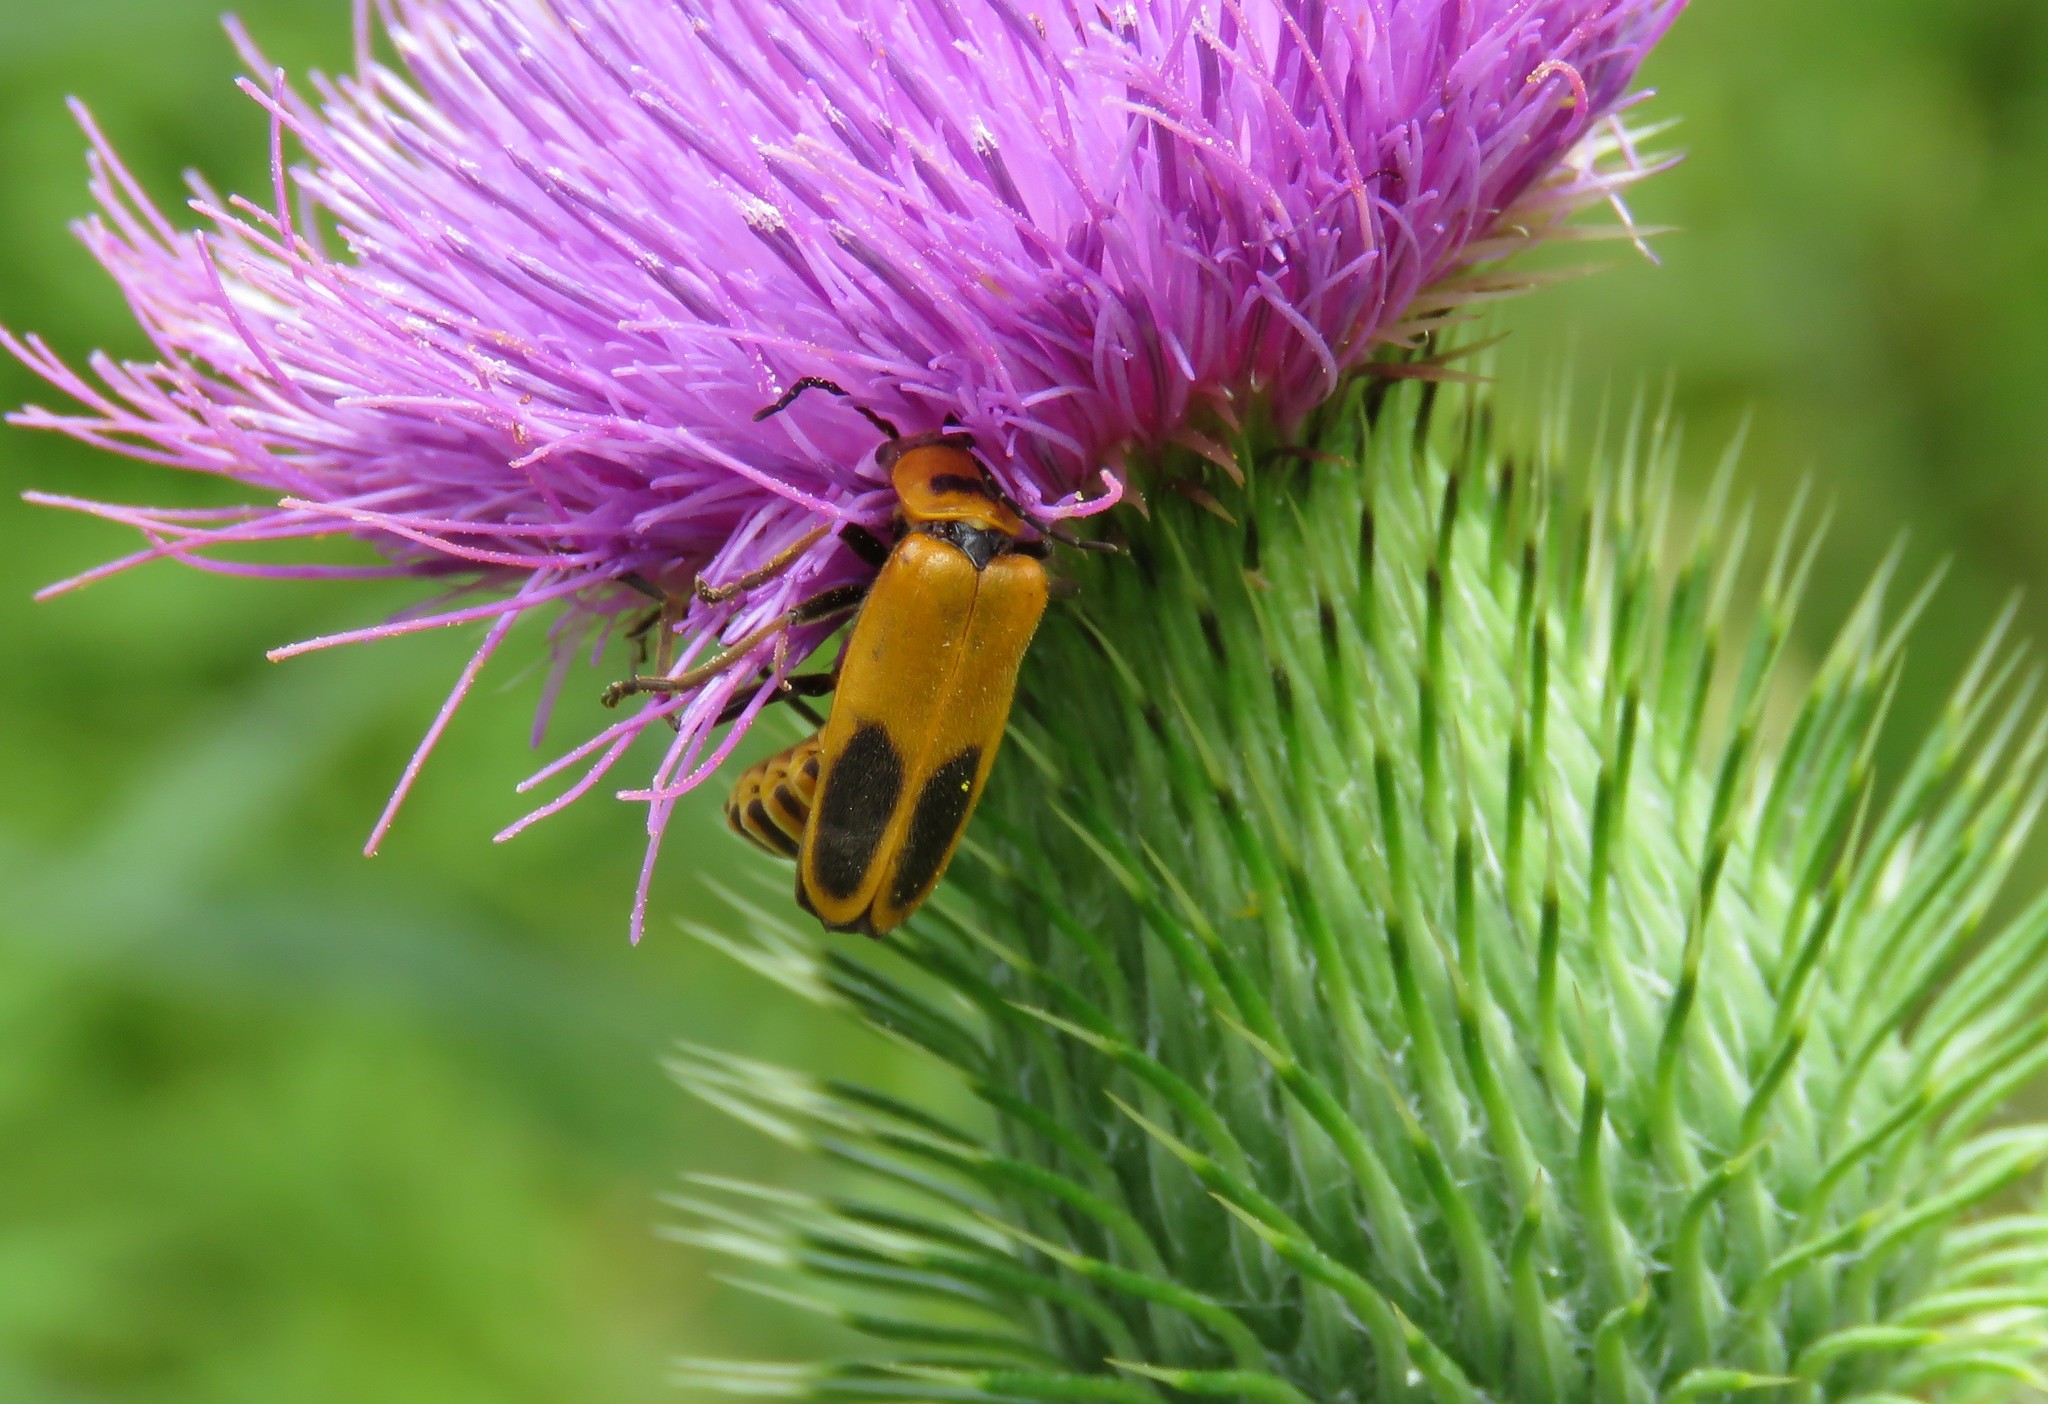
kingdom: Animalia
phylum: Arthropoda
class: Insecta
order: Coleoptera
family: Cantharidae
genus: Chauliognathus
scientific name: Chauliognathus pensylvanicus
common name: Goldenrod soldier beetle
